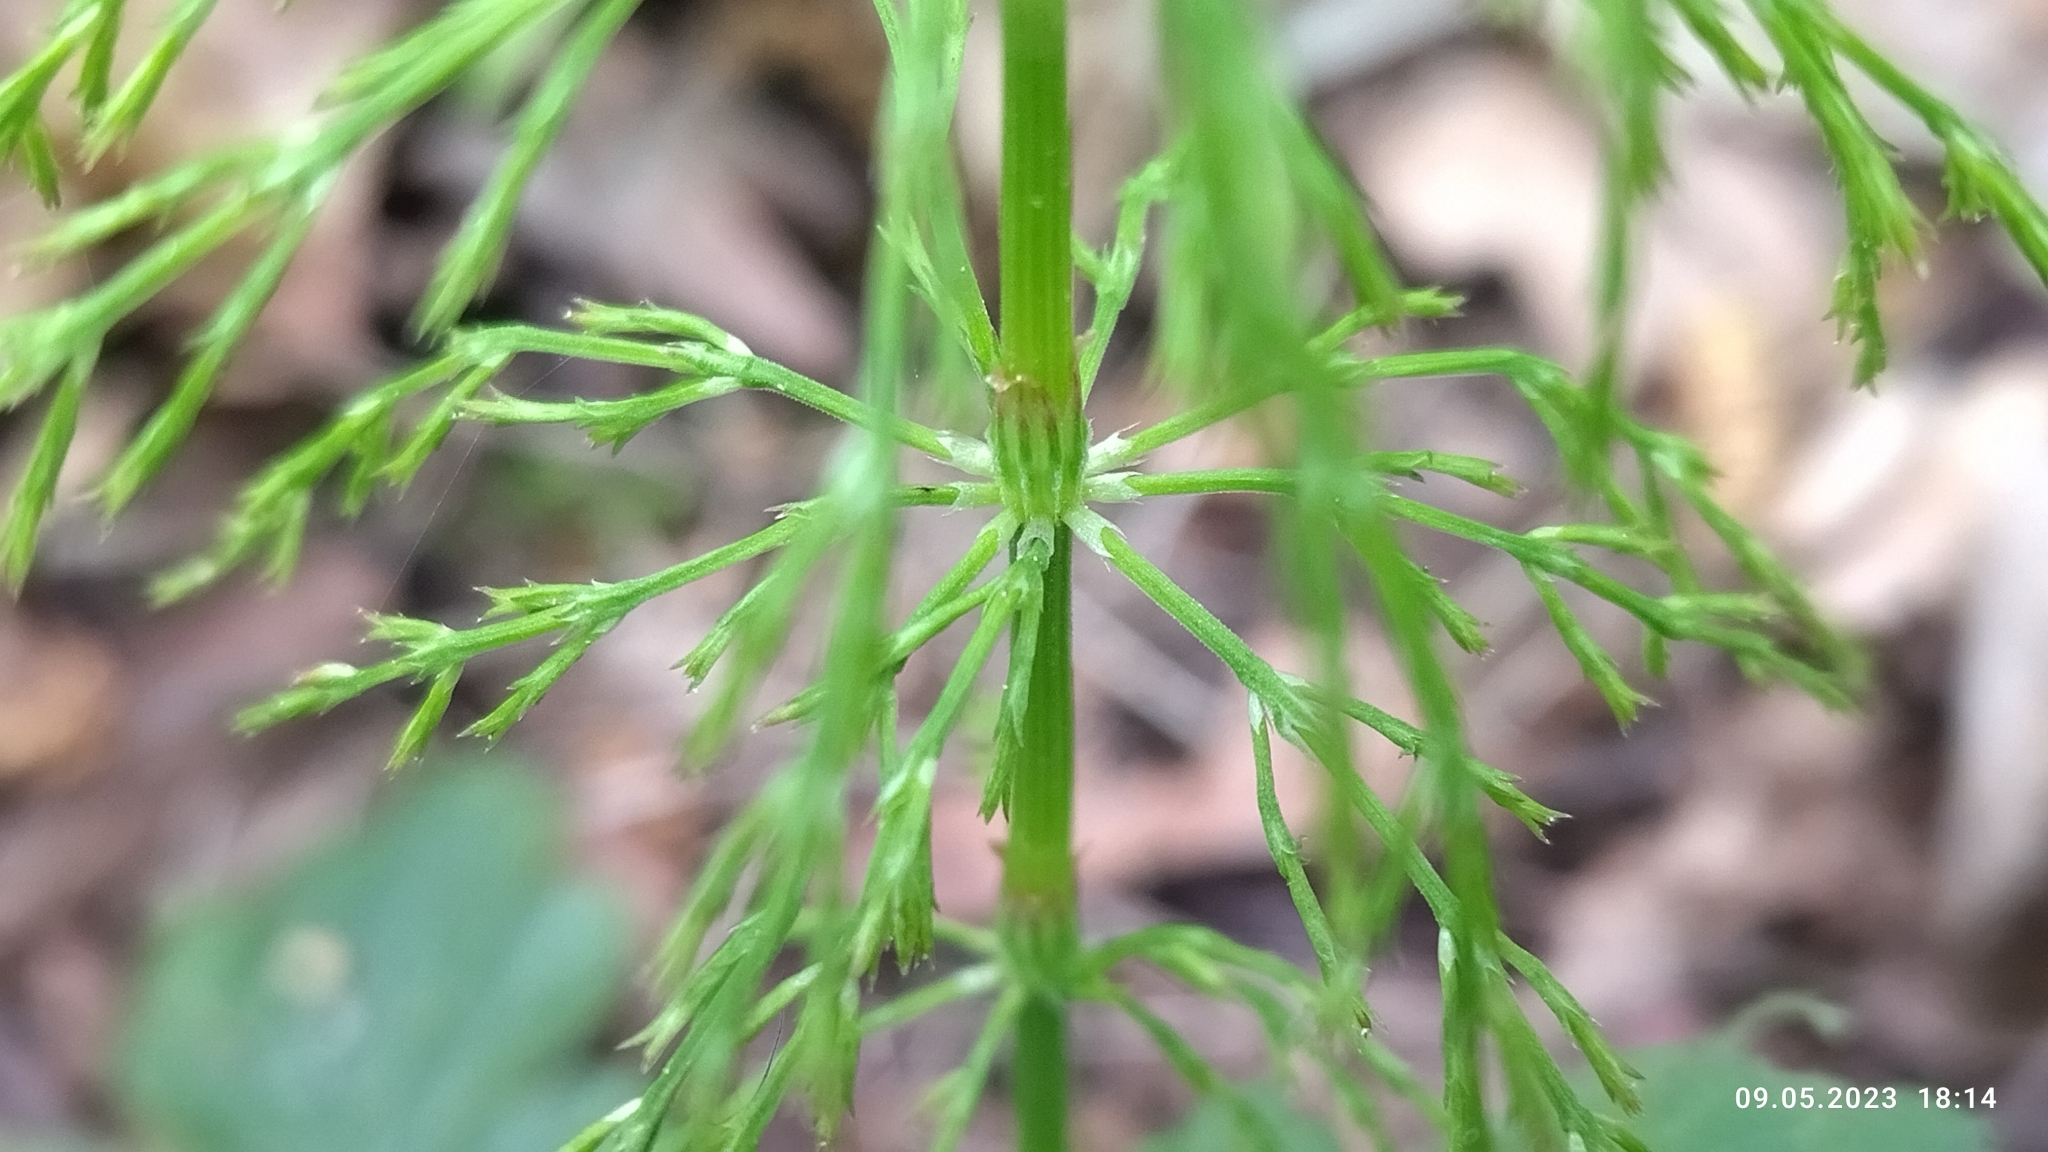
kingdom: Plantae
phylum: Tracheophyta
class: Polypodiopsida
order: Equisetales
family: Equisetaceae
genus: Equisetum
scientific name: Equisetum sylvaticum
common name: Wood horsetail
